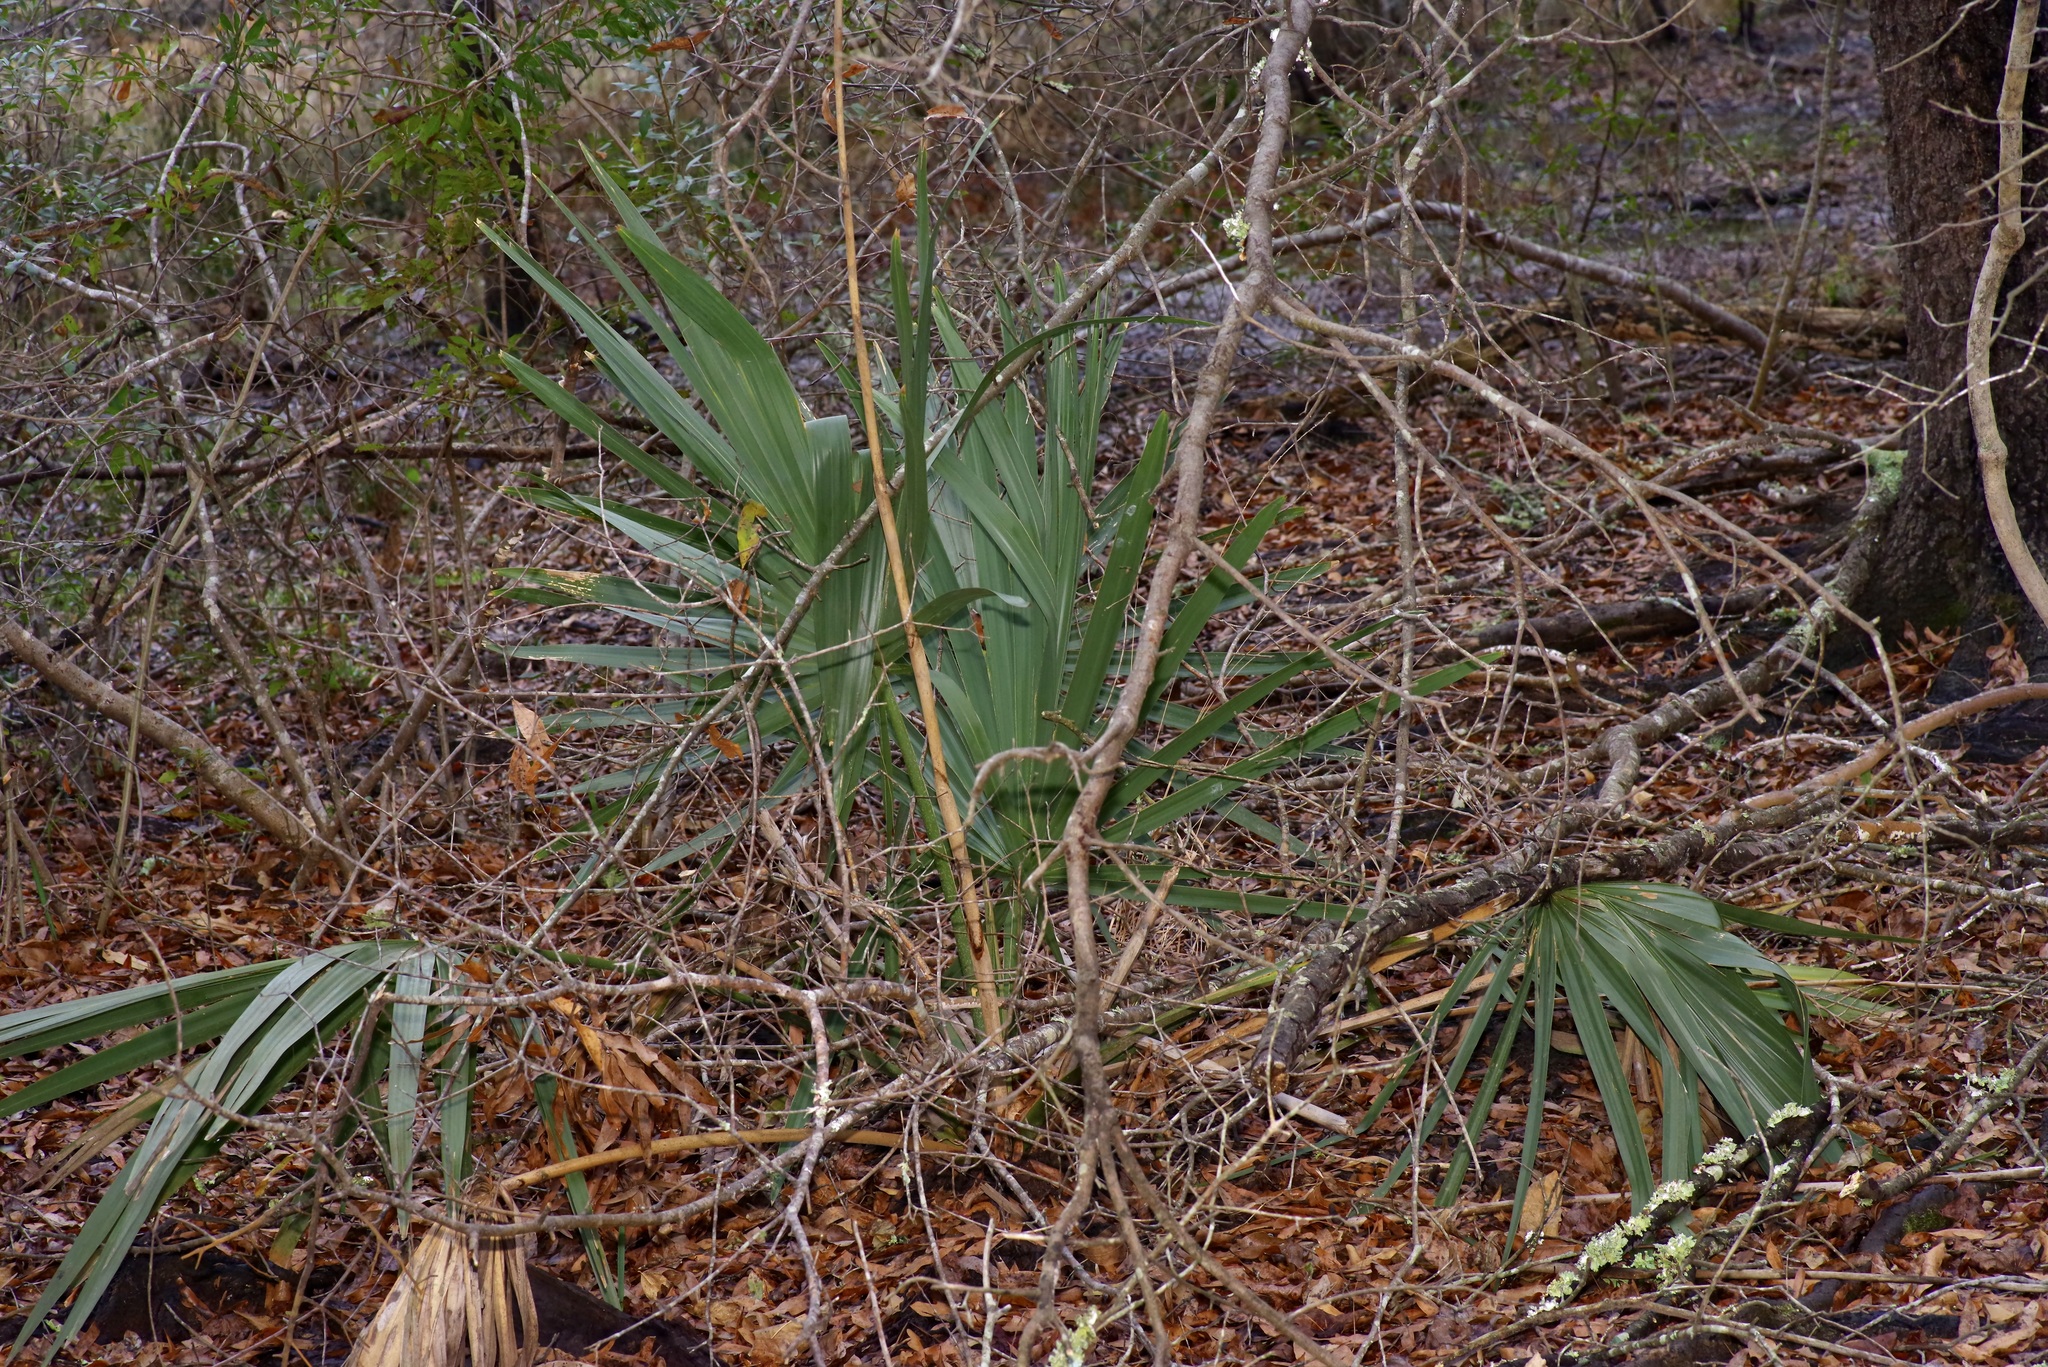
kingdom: Plantae
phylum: Tracheophyta
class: Liliopsida
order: Arecales
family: Arecaceae
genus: Sabal
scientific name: Sabal minor
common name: Dwarf palmetto
